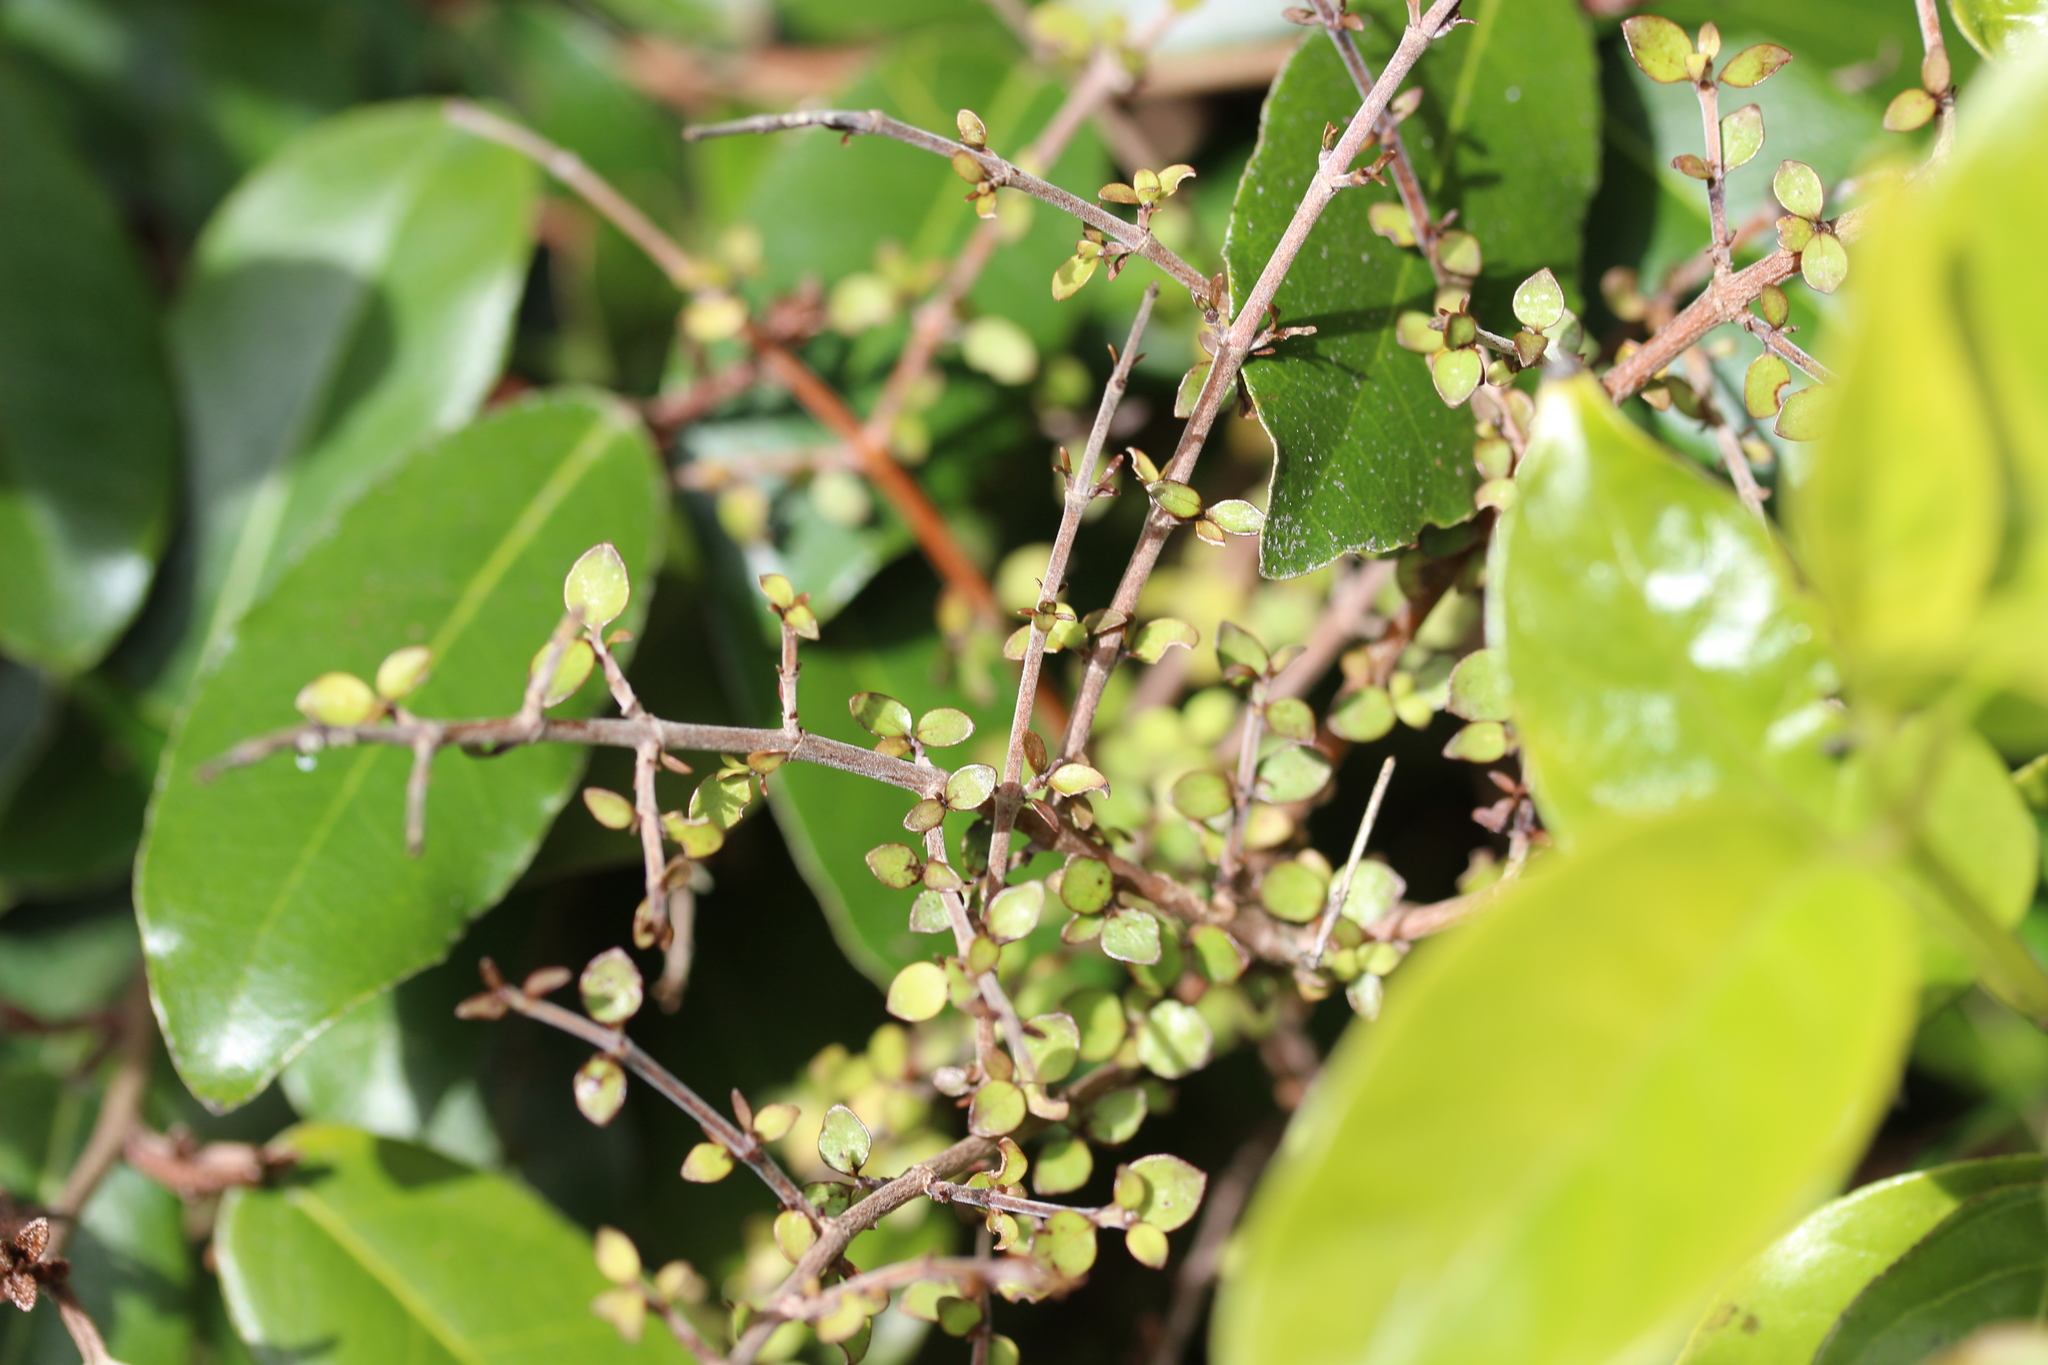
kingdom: Plantae
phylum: Tracheophyta
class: Magnoliopsida
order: Gentianales
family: Rubiaceae
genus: Coprosma
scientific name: Coprosma rhamnoides
